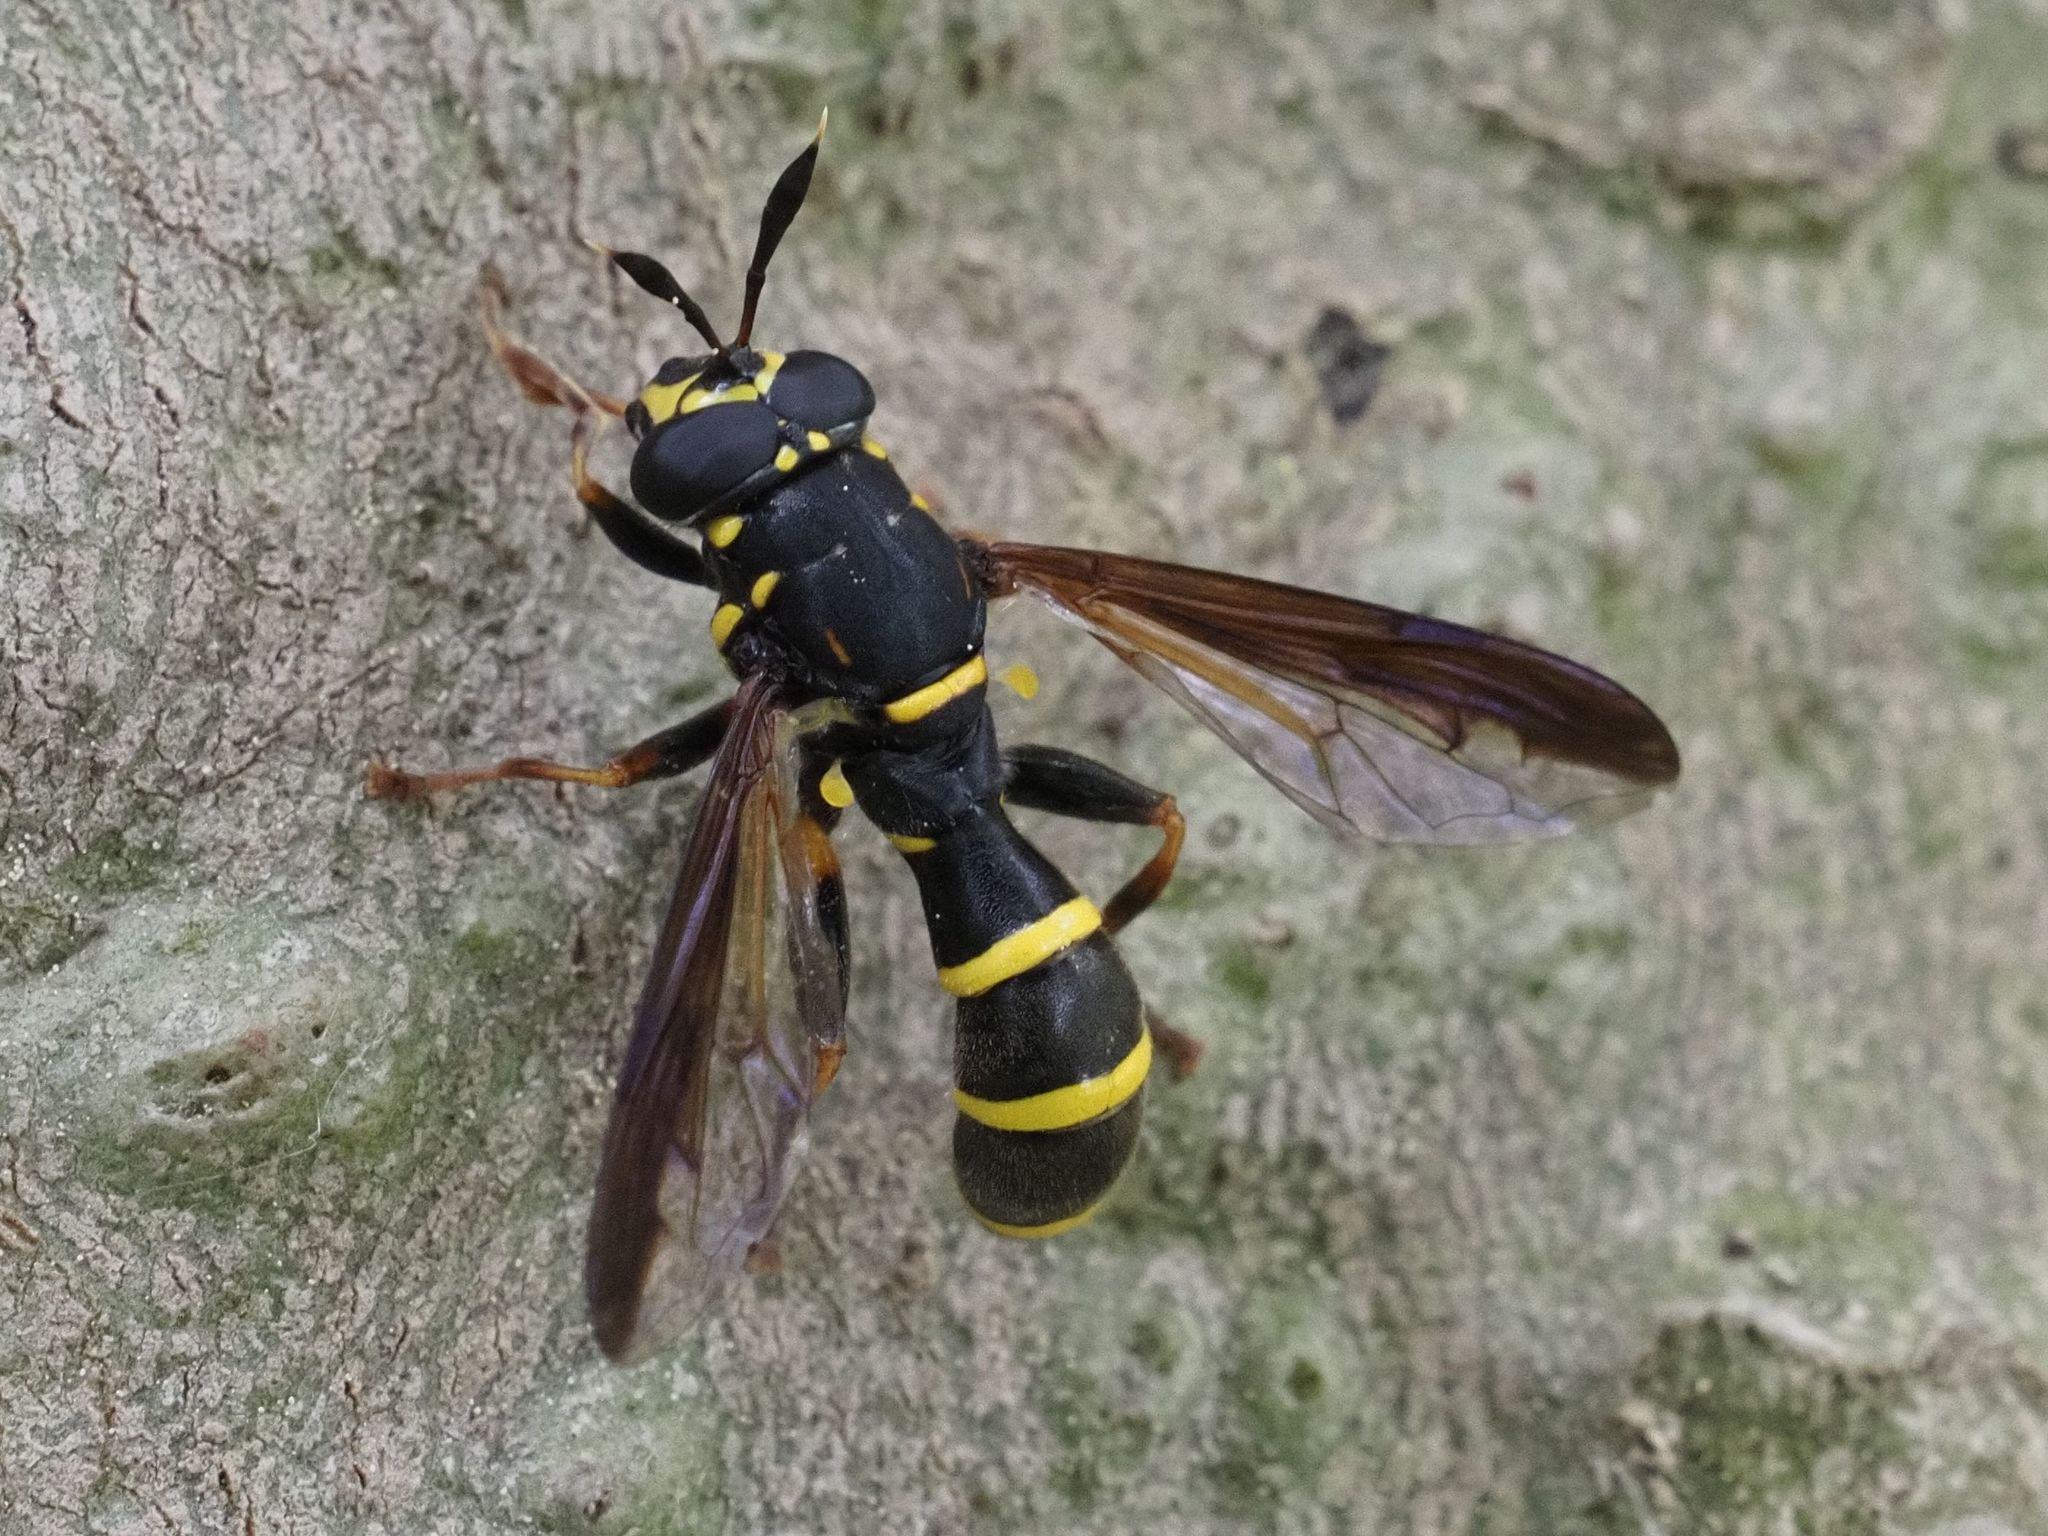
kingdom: Animalia
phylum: Arthropoda
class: Insecta
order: Diptera
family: Syrphidae
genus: Sphiximorpha
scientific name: Sphiximorpha subsessilis
